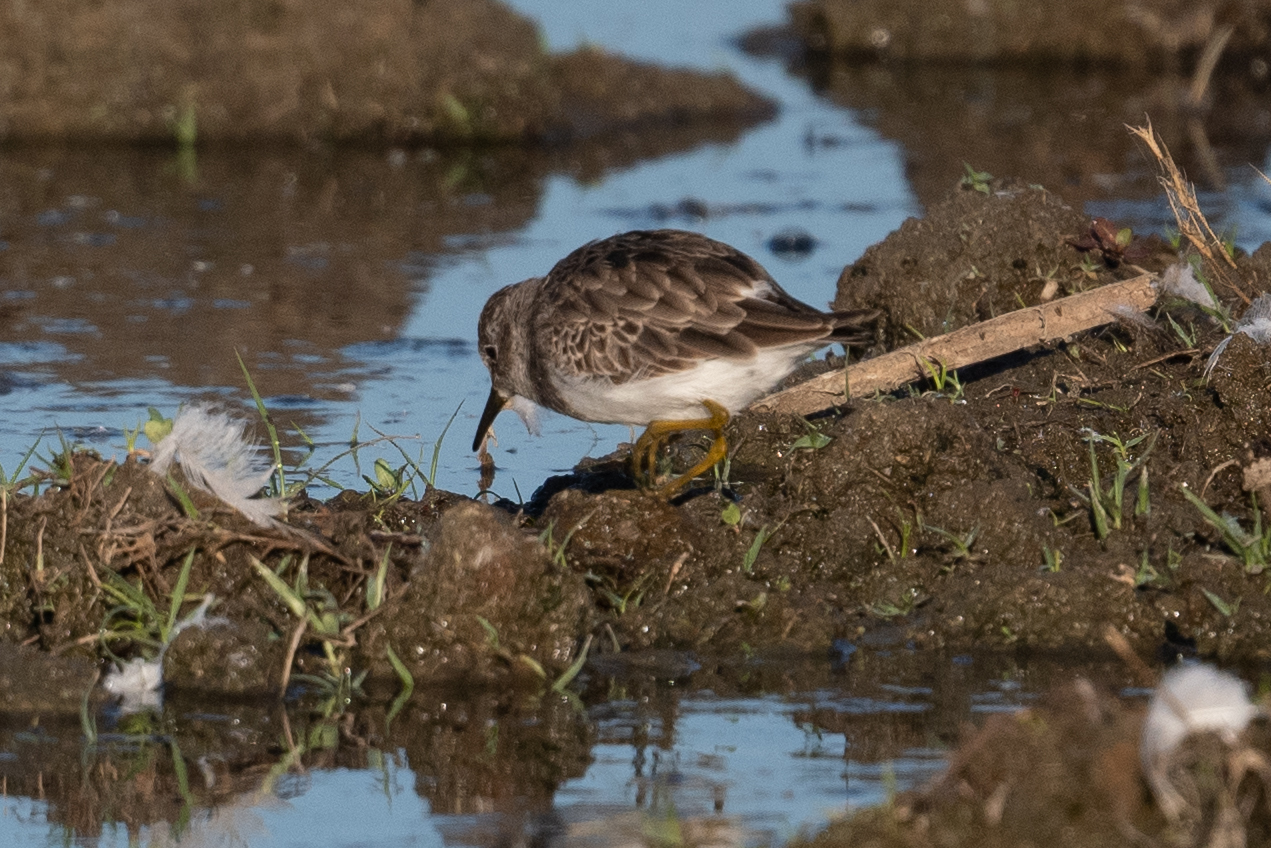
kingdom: Animalia
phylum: Chordata
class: Aves
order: Charadriiformes
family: Scolopacidae
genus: Calidris
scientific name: Calidris minutilla
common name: Least sandpiper
